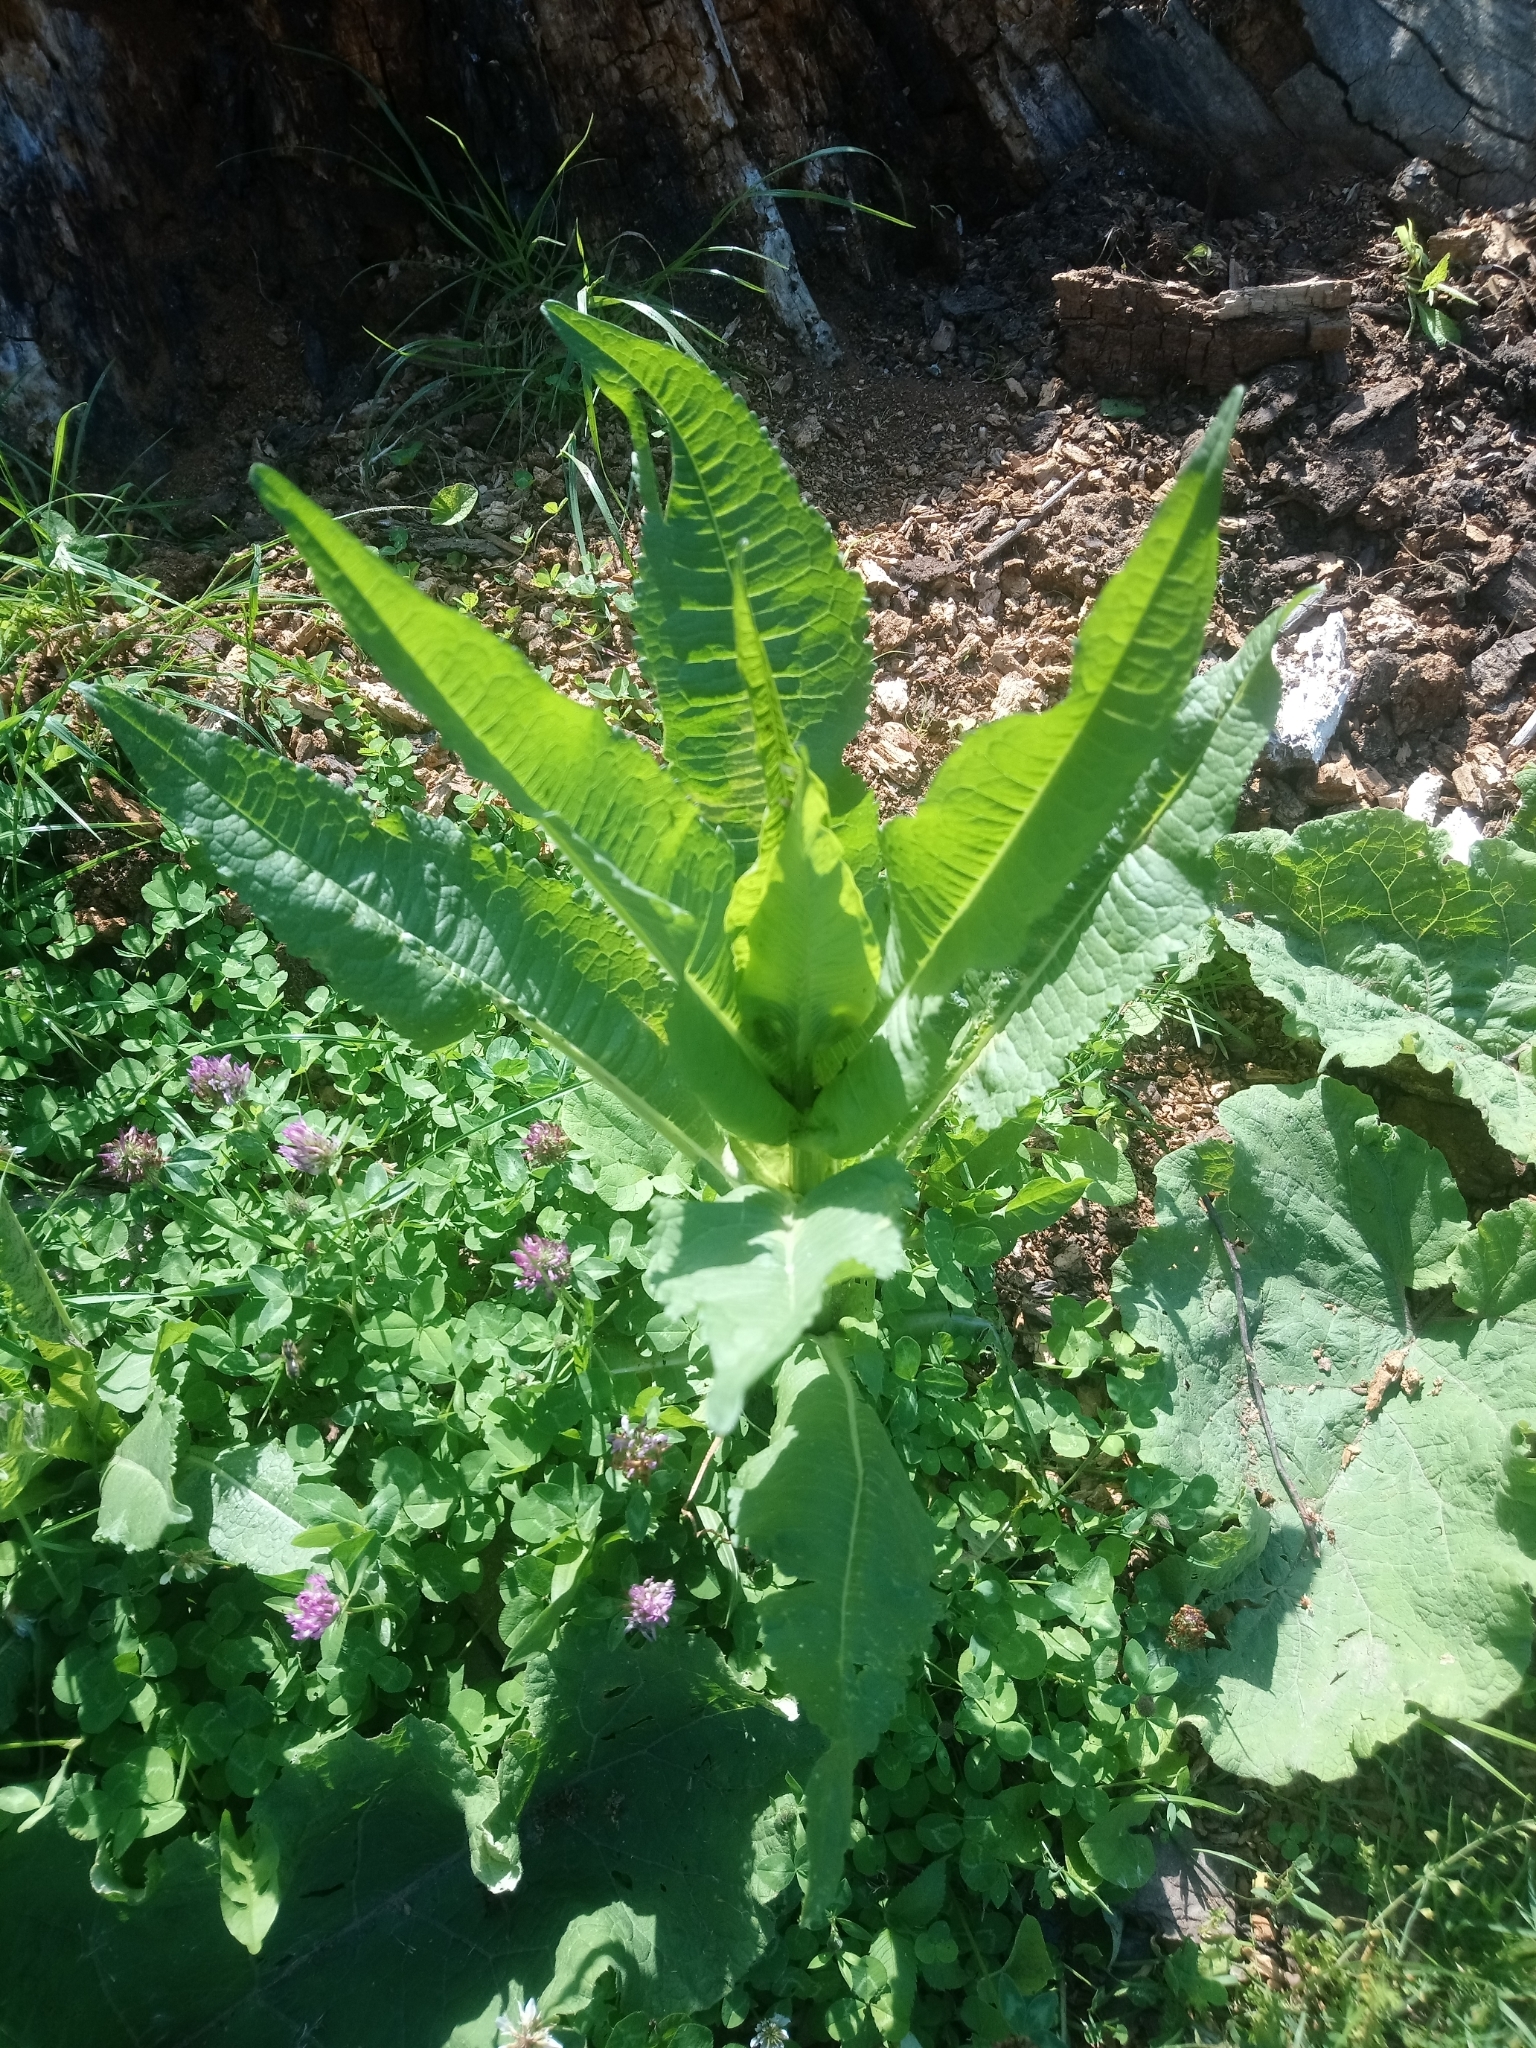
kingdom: Plantae
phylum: Tracheophyta
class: Magnoliopsida
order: Dipsacales
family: Caprifoliaceae
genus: Dipsacus
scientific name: Dipsacus fullonum
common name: Teasel
